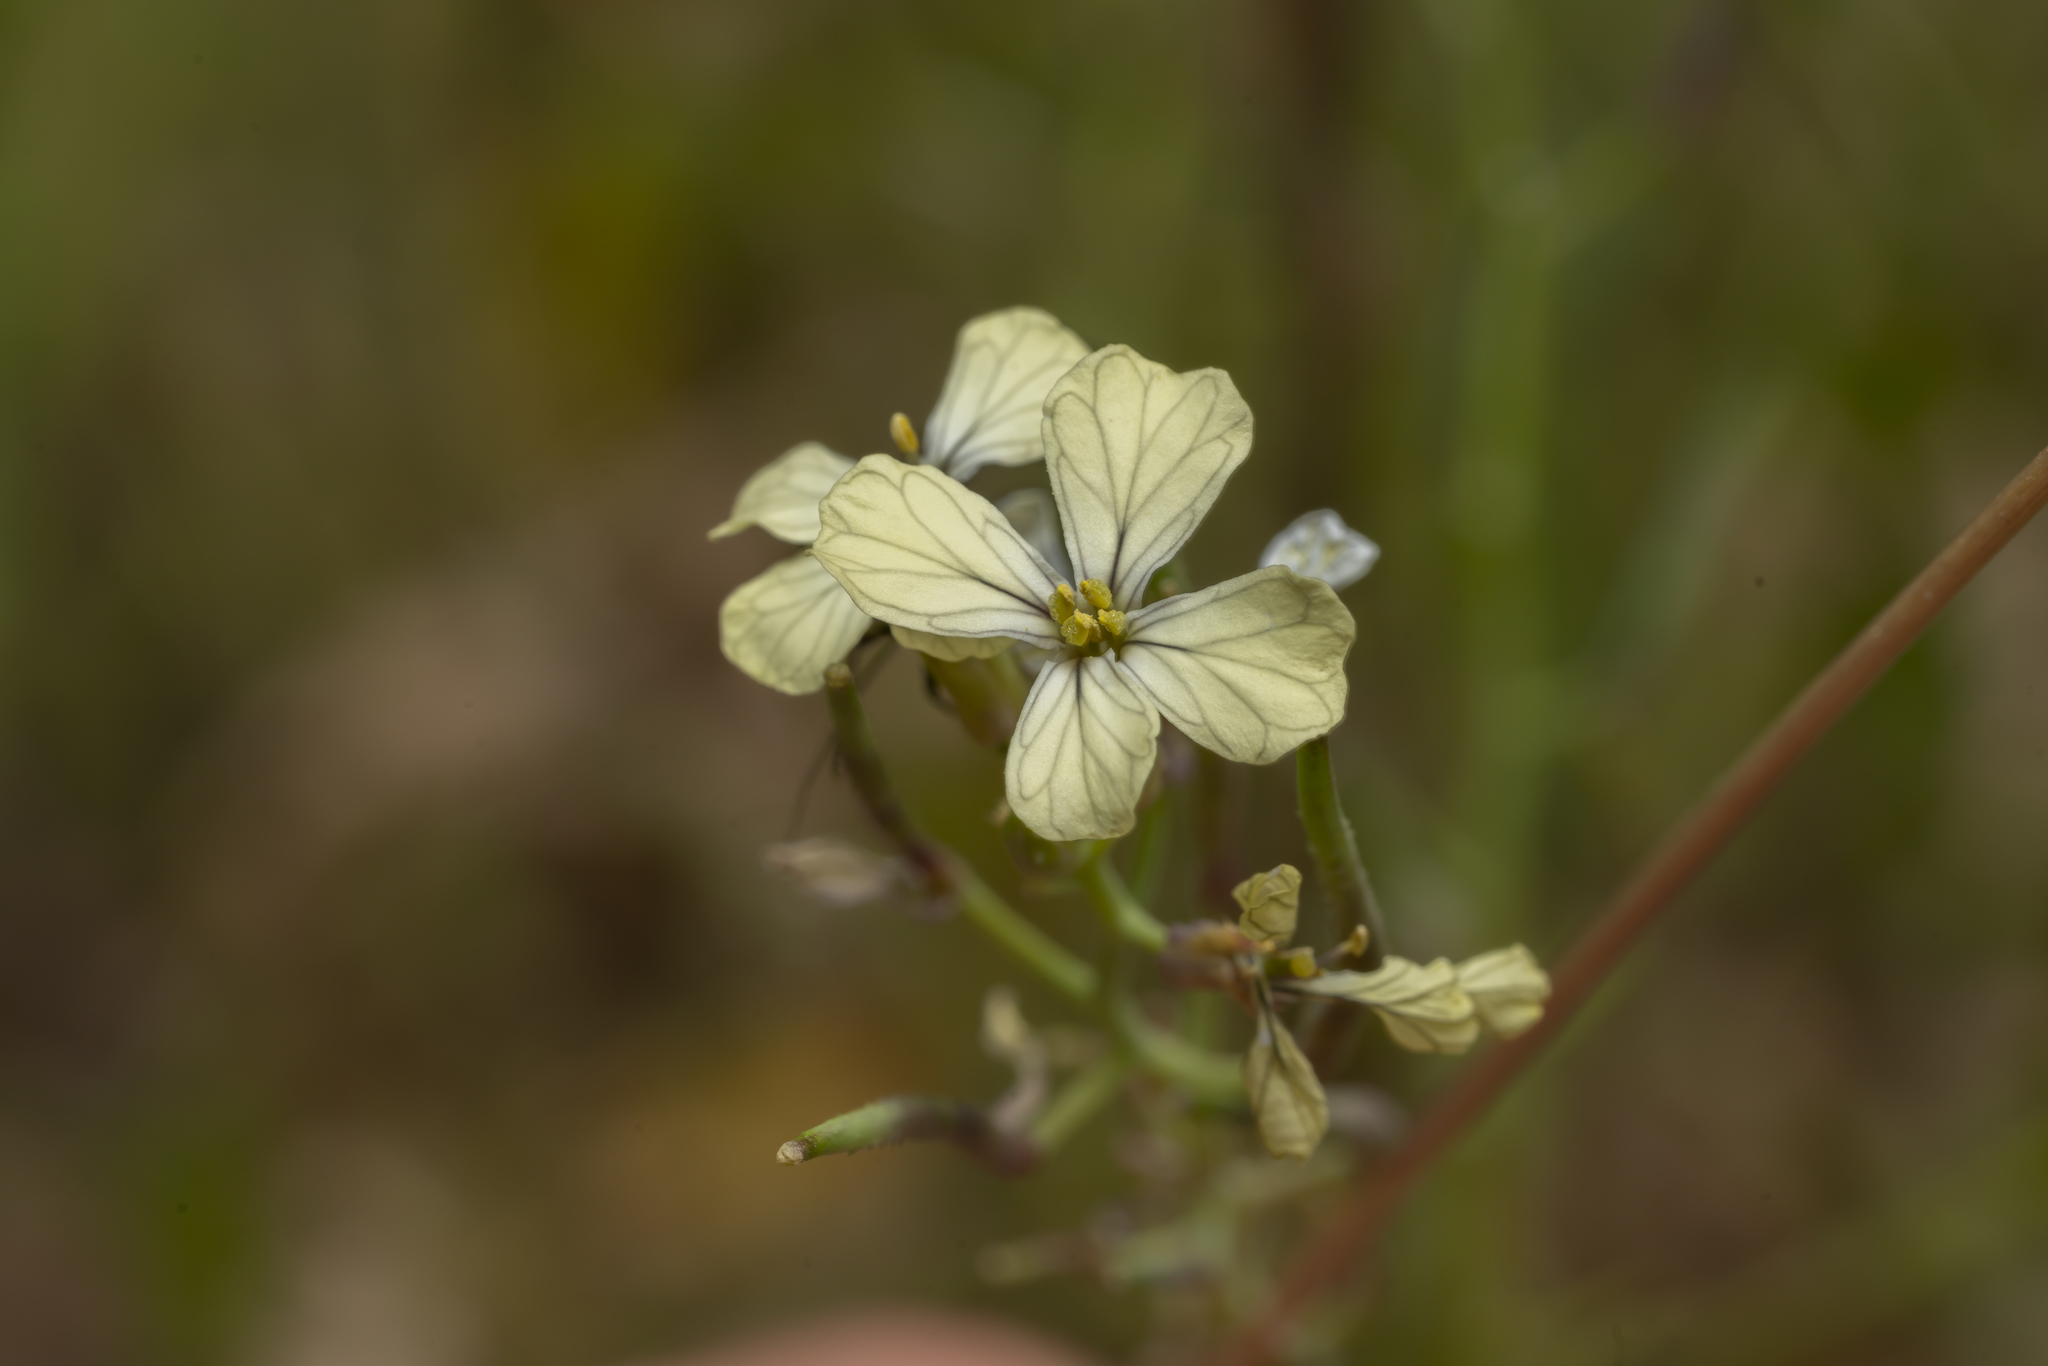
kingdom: Plantae
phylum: Tracheophyta
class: Magnoliopsida
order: Brassicales
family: Brassicaceae
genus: Raphanus
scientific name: Raphanus raphanistrum
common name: Wild radish
